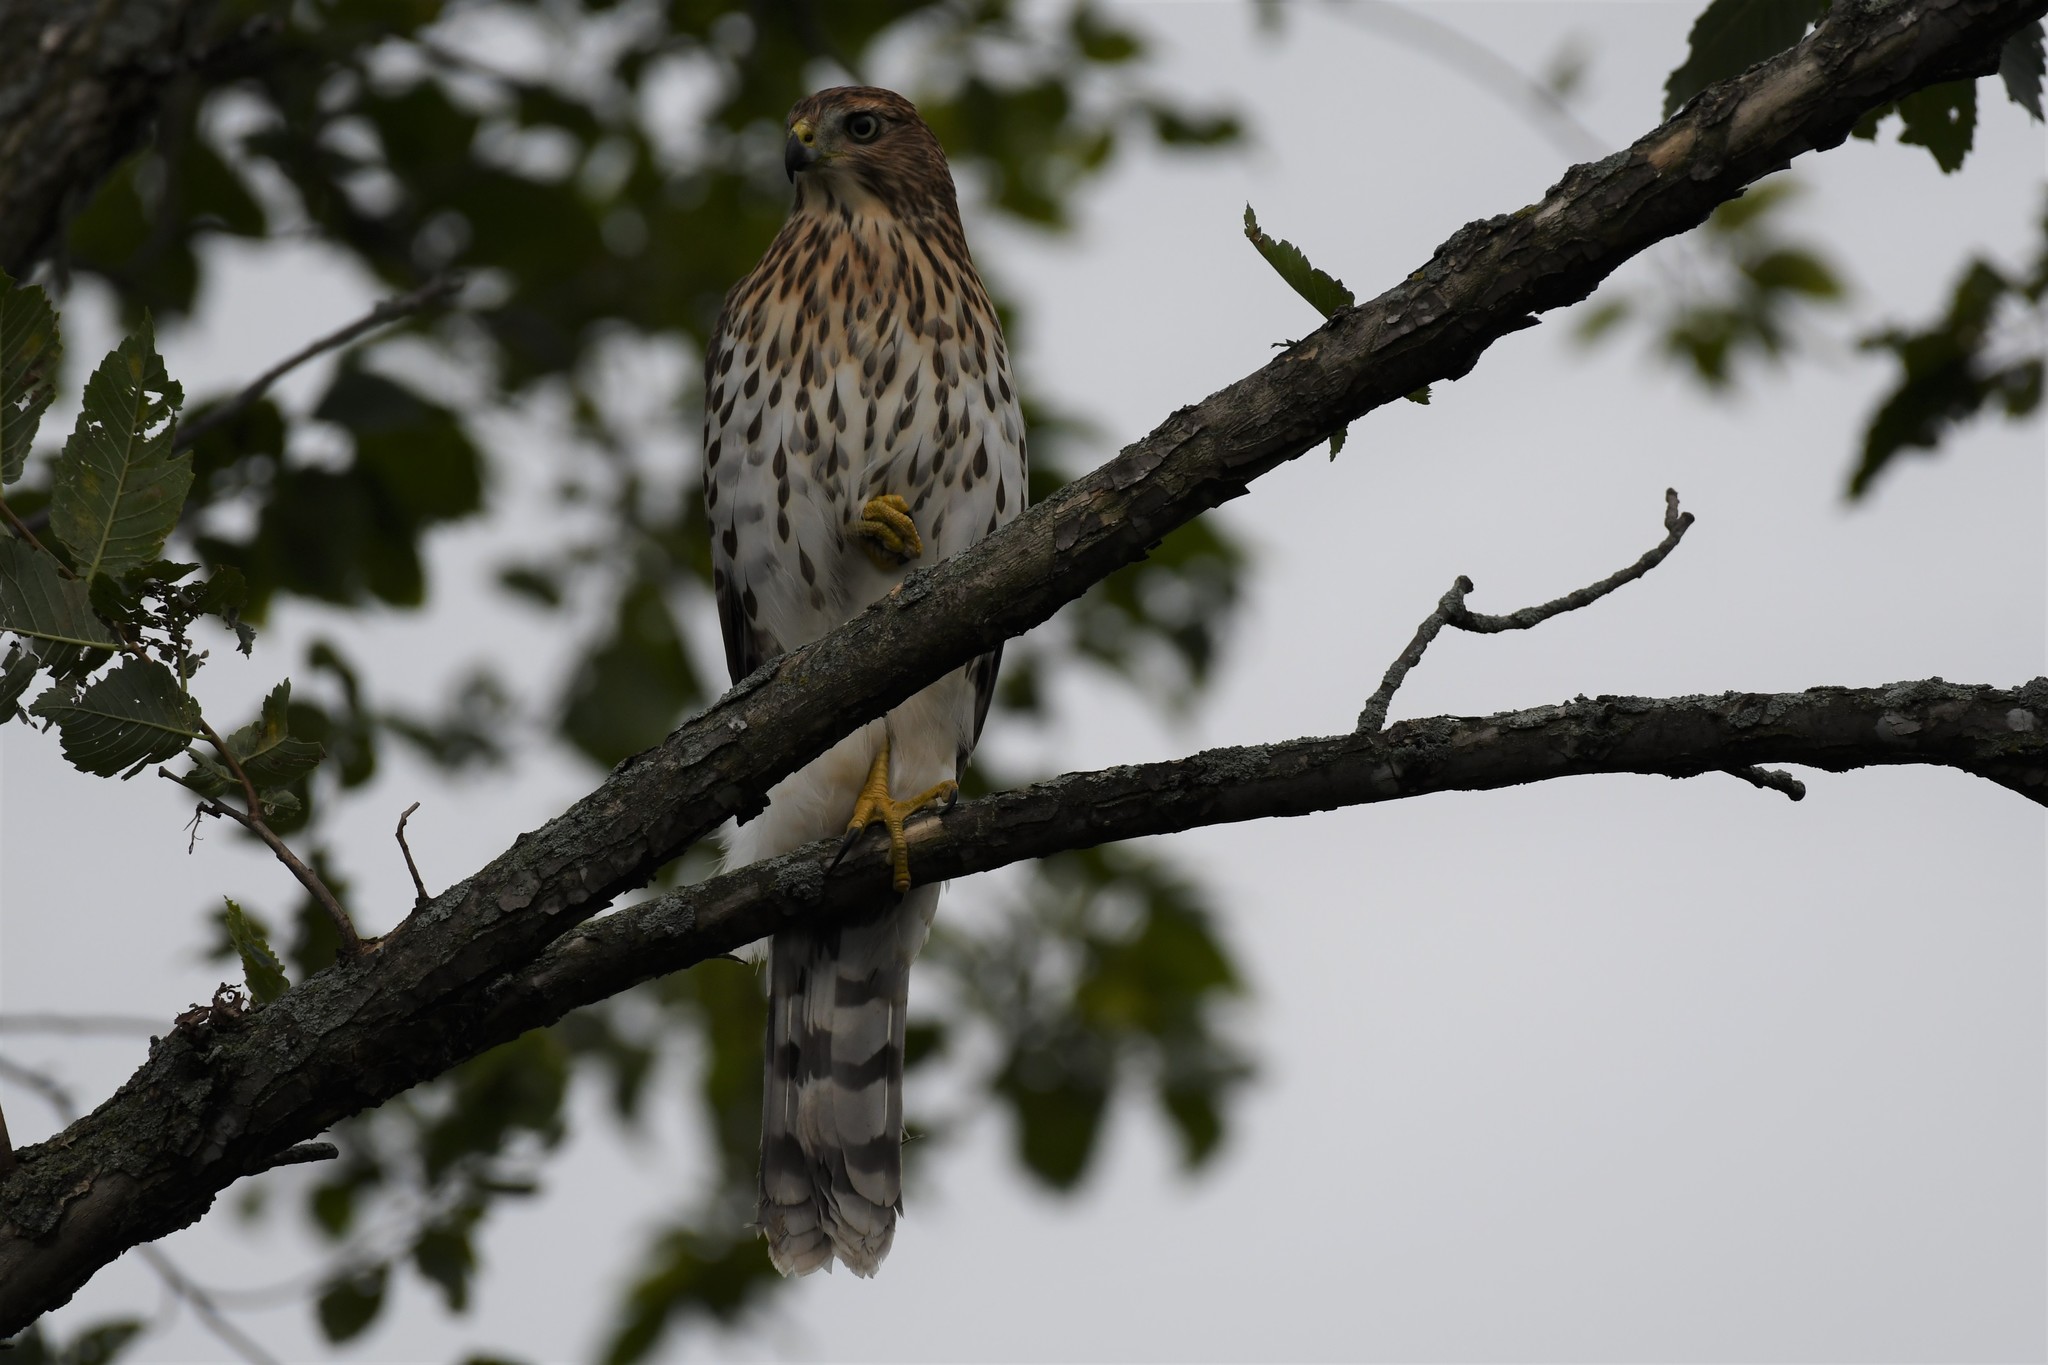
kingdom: Animalia
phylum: Chordata
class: Aves
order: Accipitriformes
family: Accipitridae
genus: Accipiter
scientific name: Accipiter cooperii
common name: Cooper's hawk
